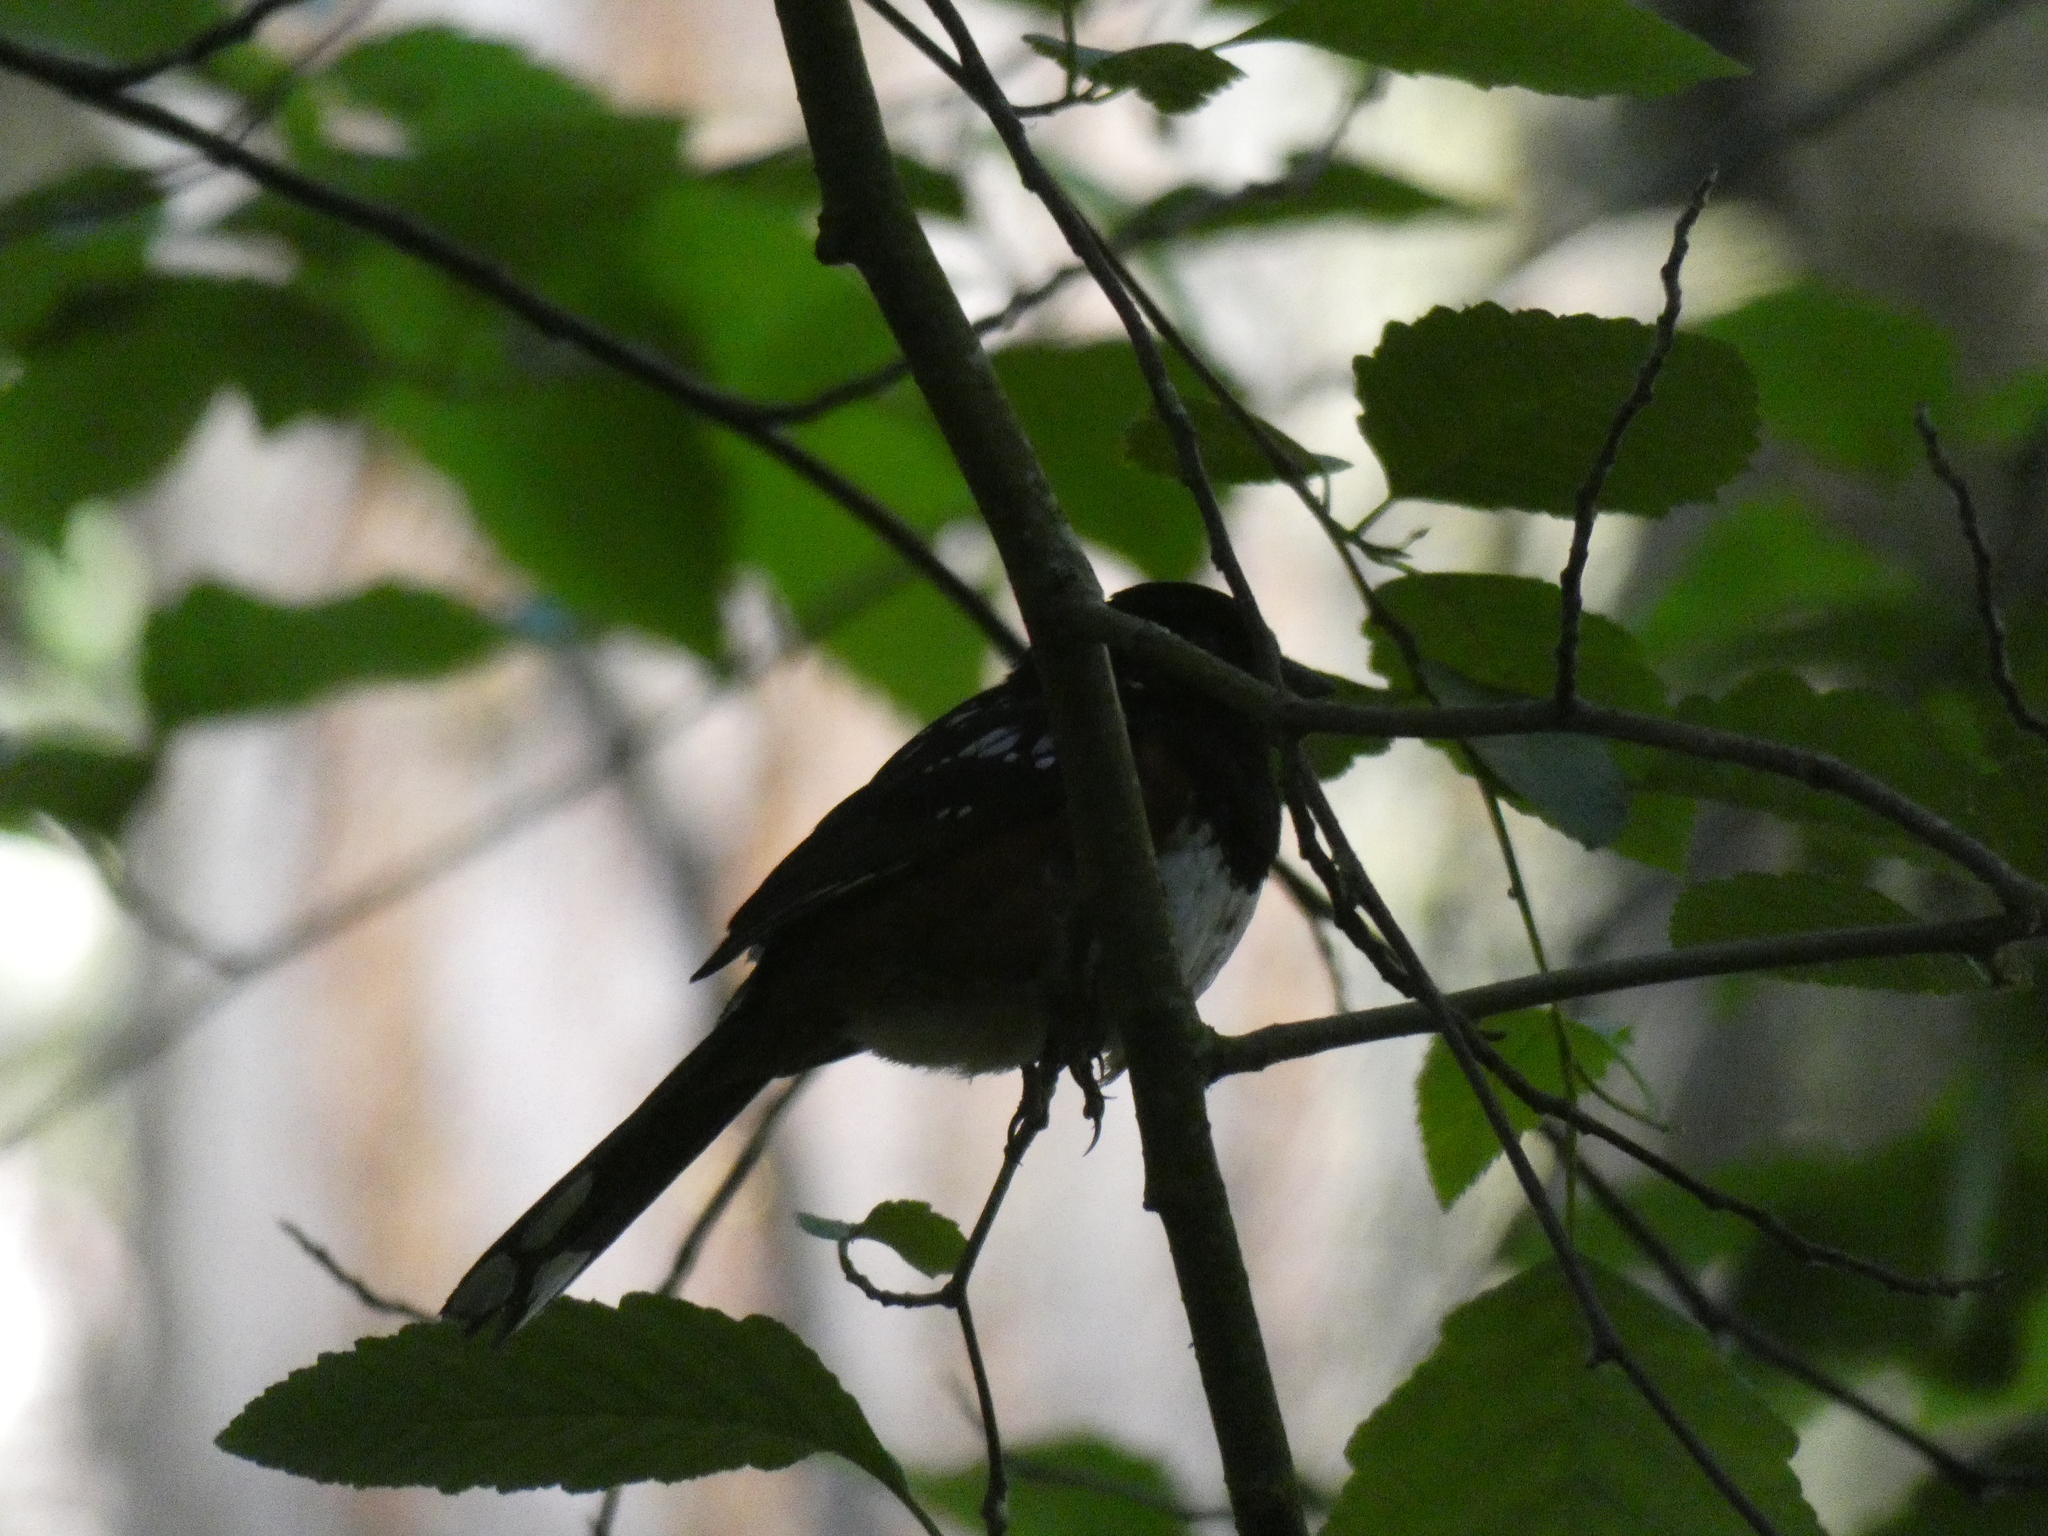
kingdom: Animalia
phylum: Chordata
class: Aves
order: Passeriformes
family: Passerellidae
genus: Pipilo
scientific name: Pipilo maculatus
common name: Spotted towhee
